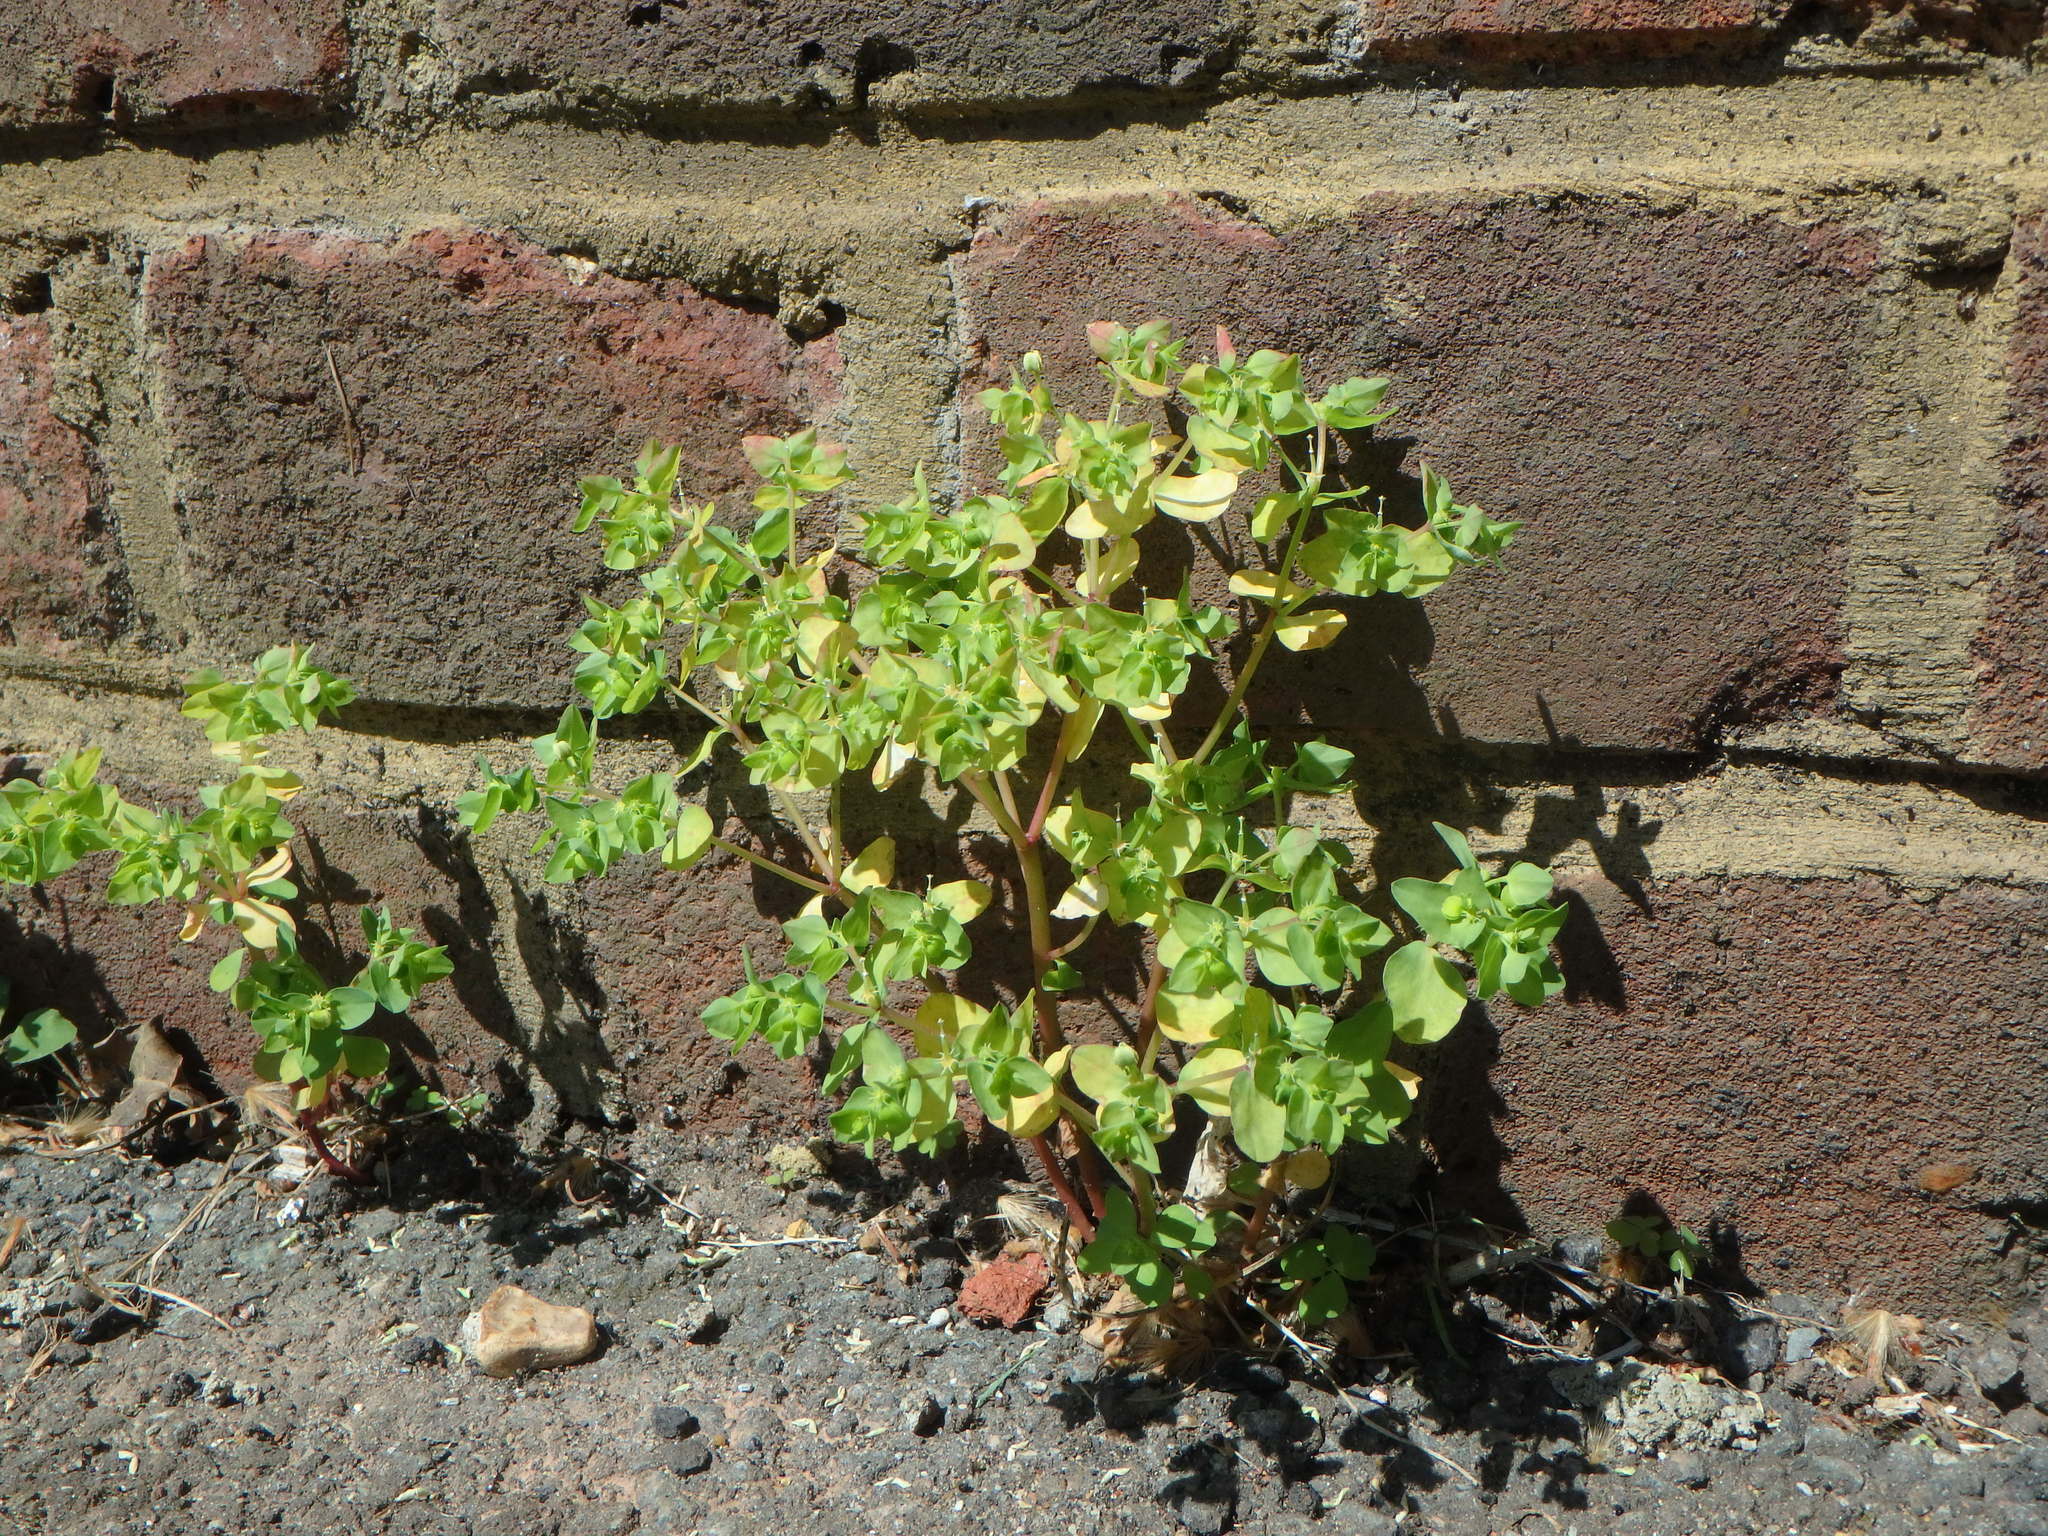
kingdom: Plantae
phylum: Tracheophyta
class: Magnoliopsida
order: Malpighiales
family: Euphorbiaceae
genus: Euphorbia
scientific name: Euphorbia peplus
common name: Petty spurge
